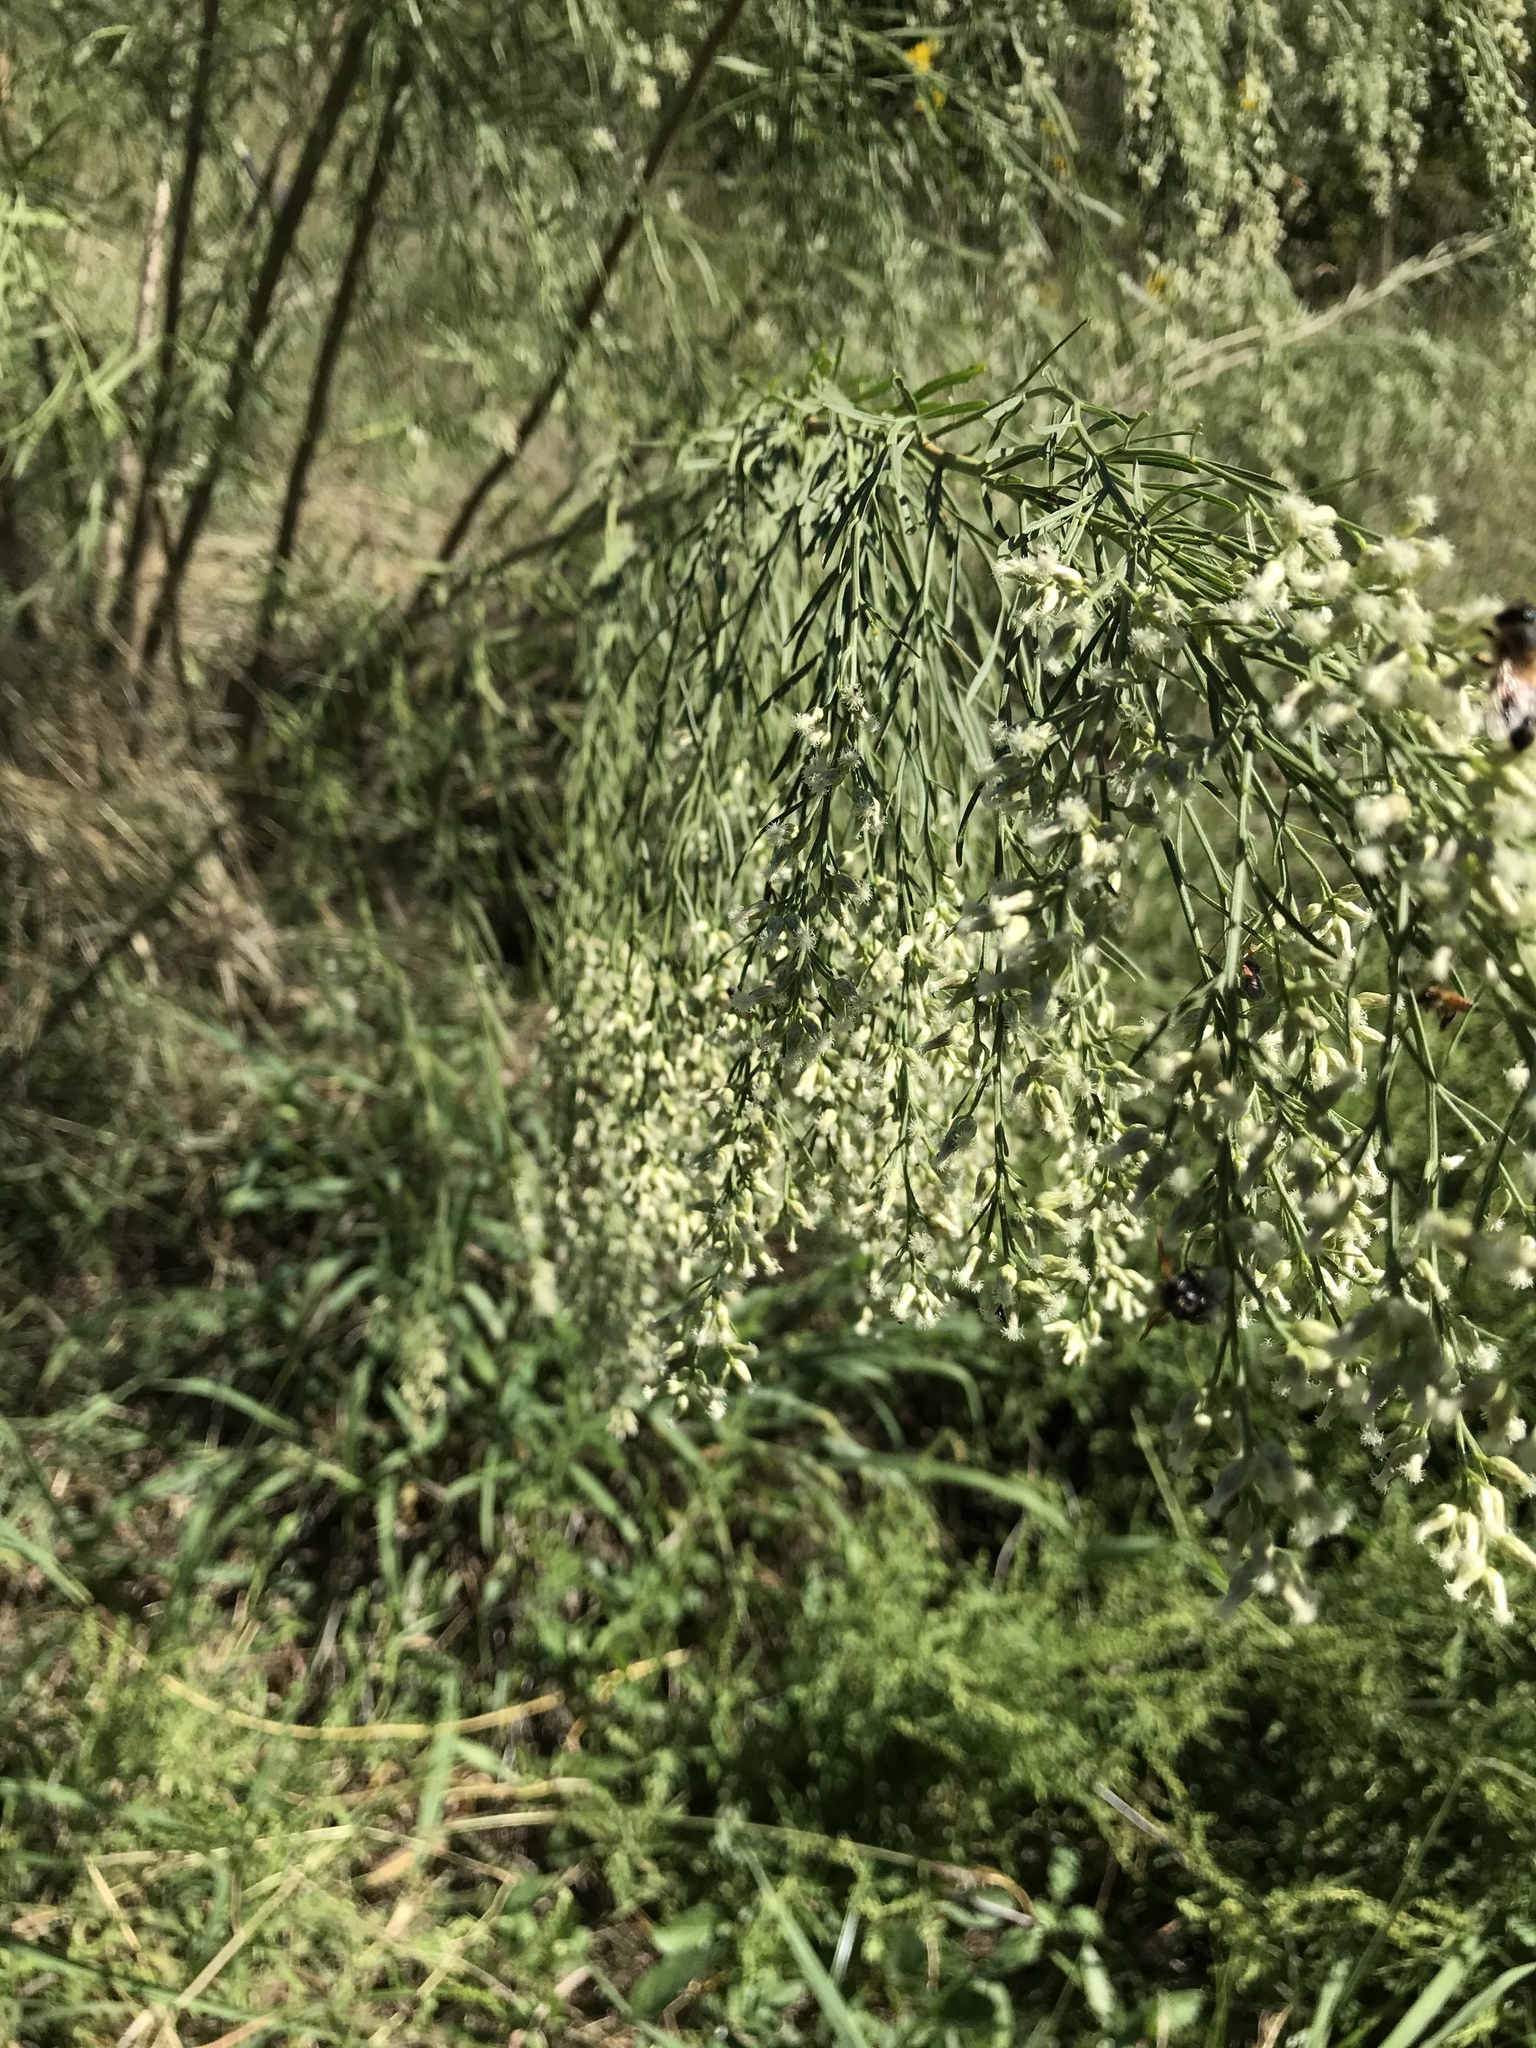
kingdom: Plantae
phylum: Tracheophyta
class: Magnoliopsida
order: Asterales
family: Asteraceae
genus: Baccharis
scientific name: Baccharis neglecta
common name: Roosevelt-weed
